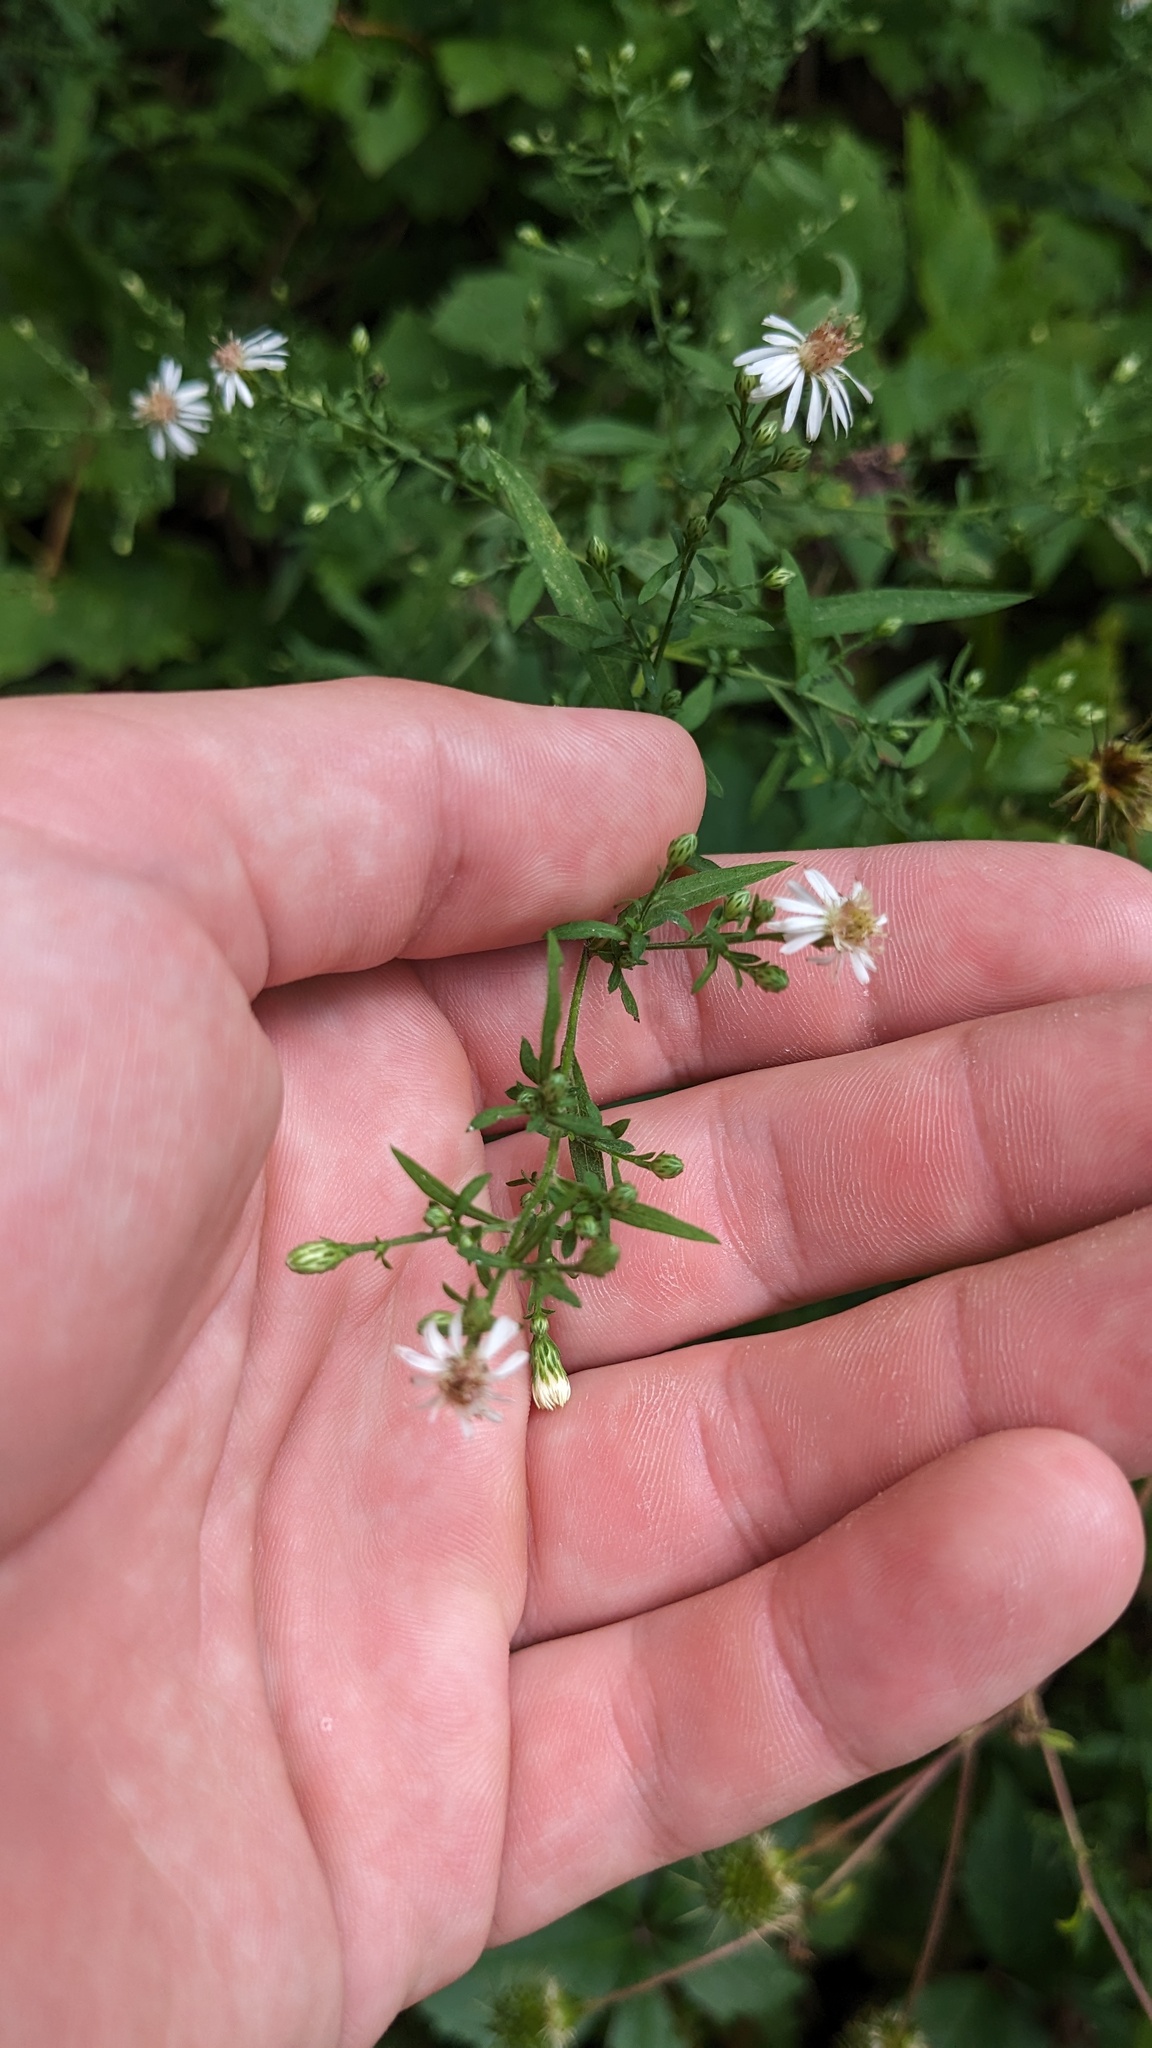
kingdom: Plantae
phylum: Tracheophyta
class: Magnoliopsida
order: Asterales
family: Asteraceae
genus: Symphyotrichum
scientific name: Symphyotrichum lanceolatum
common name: Panicled aster
